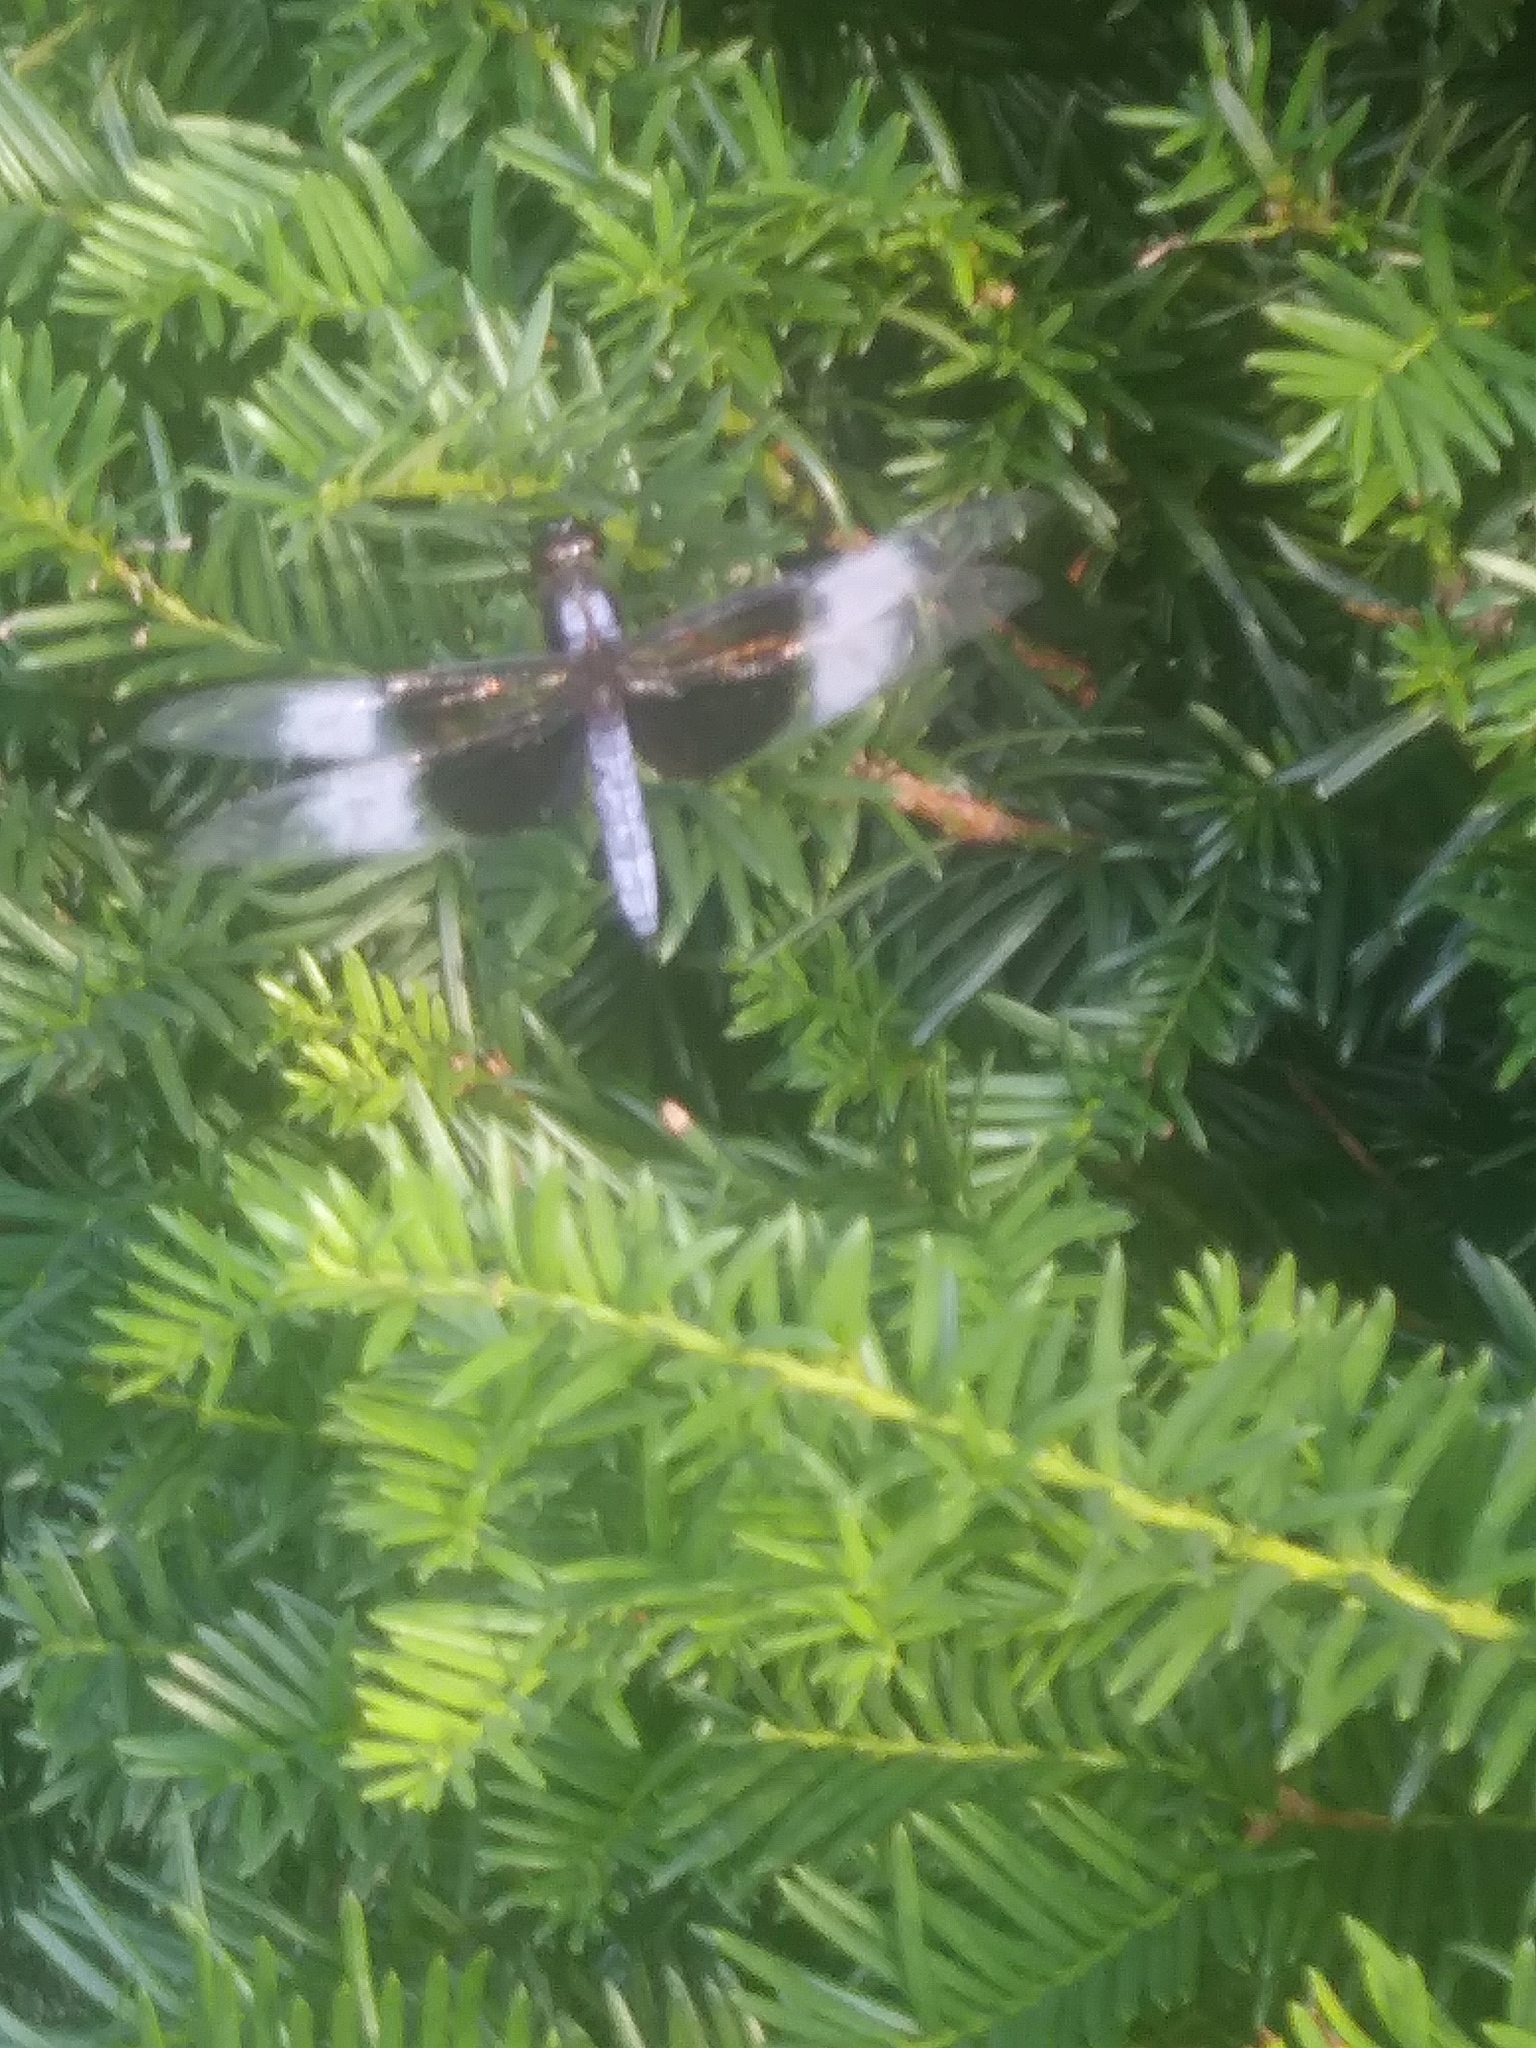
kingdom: Animalia
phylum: Arthropoda
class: Insecta
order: Odonata
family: Libellulidae
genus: Libellula
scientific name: Libellula luctuosa
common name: Widow skimmer
